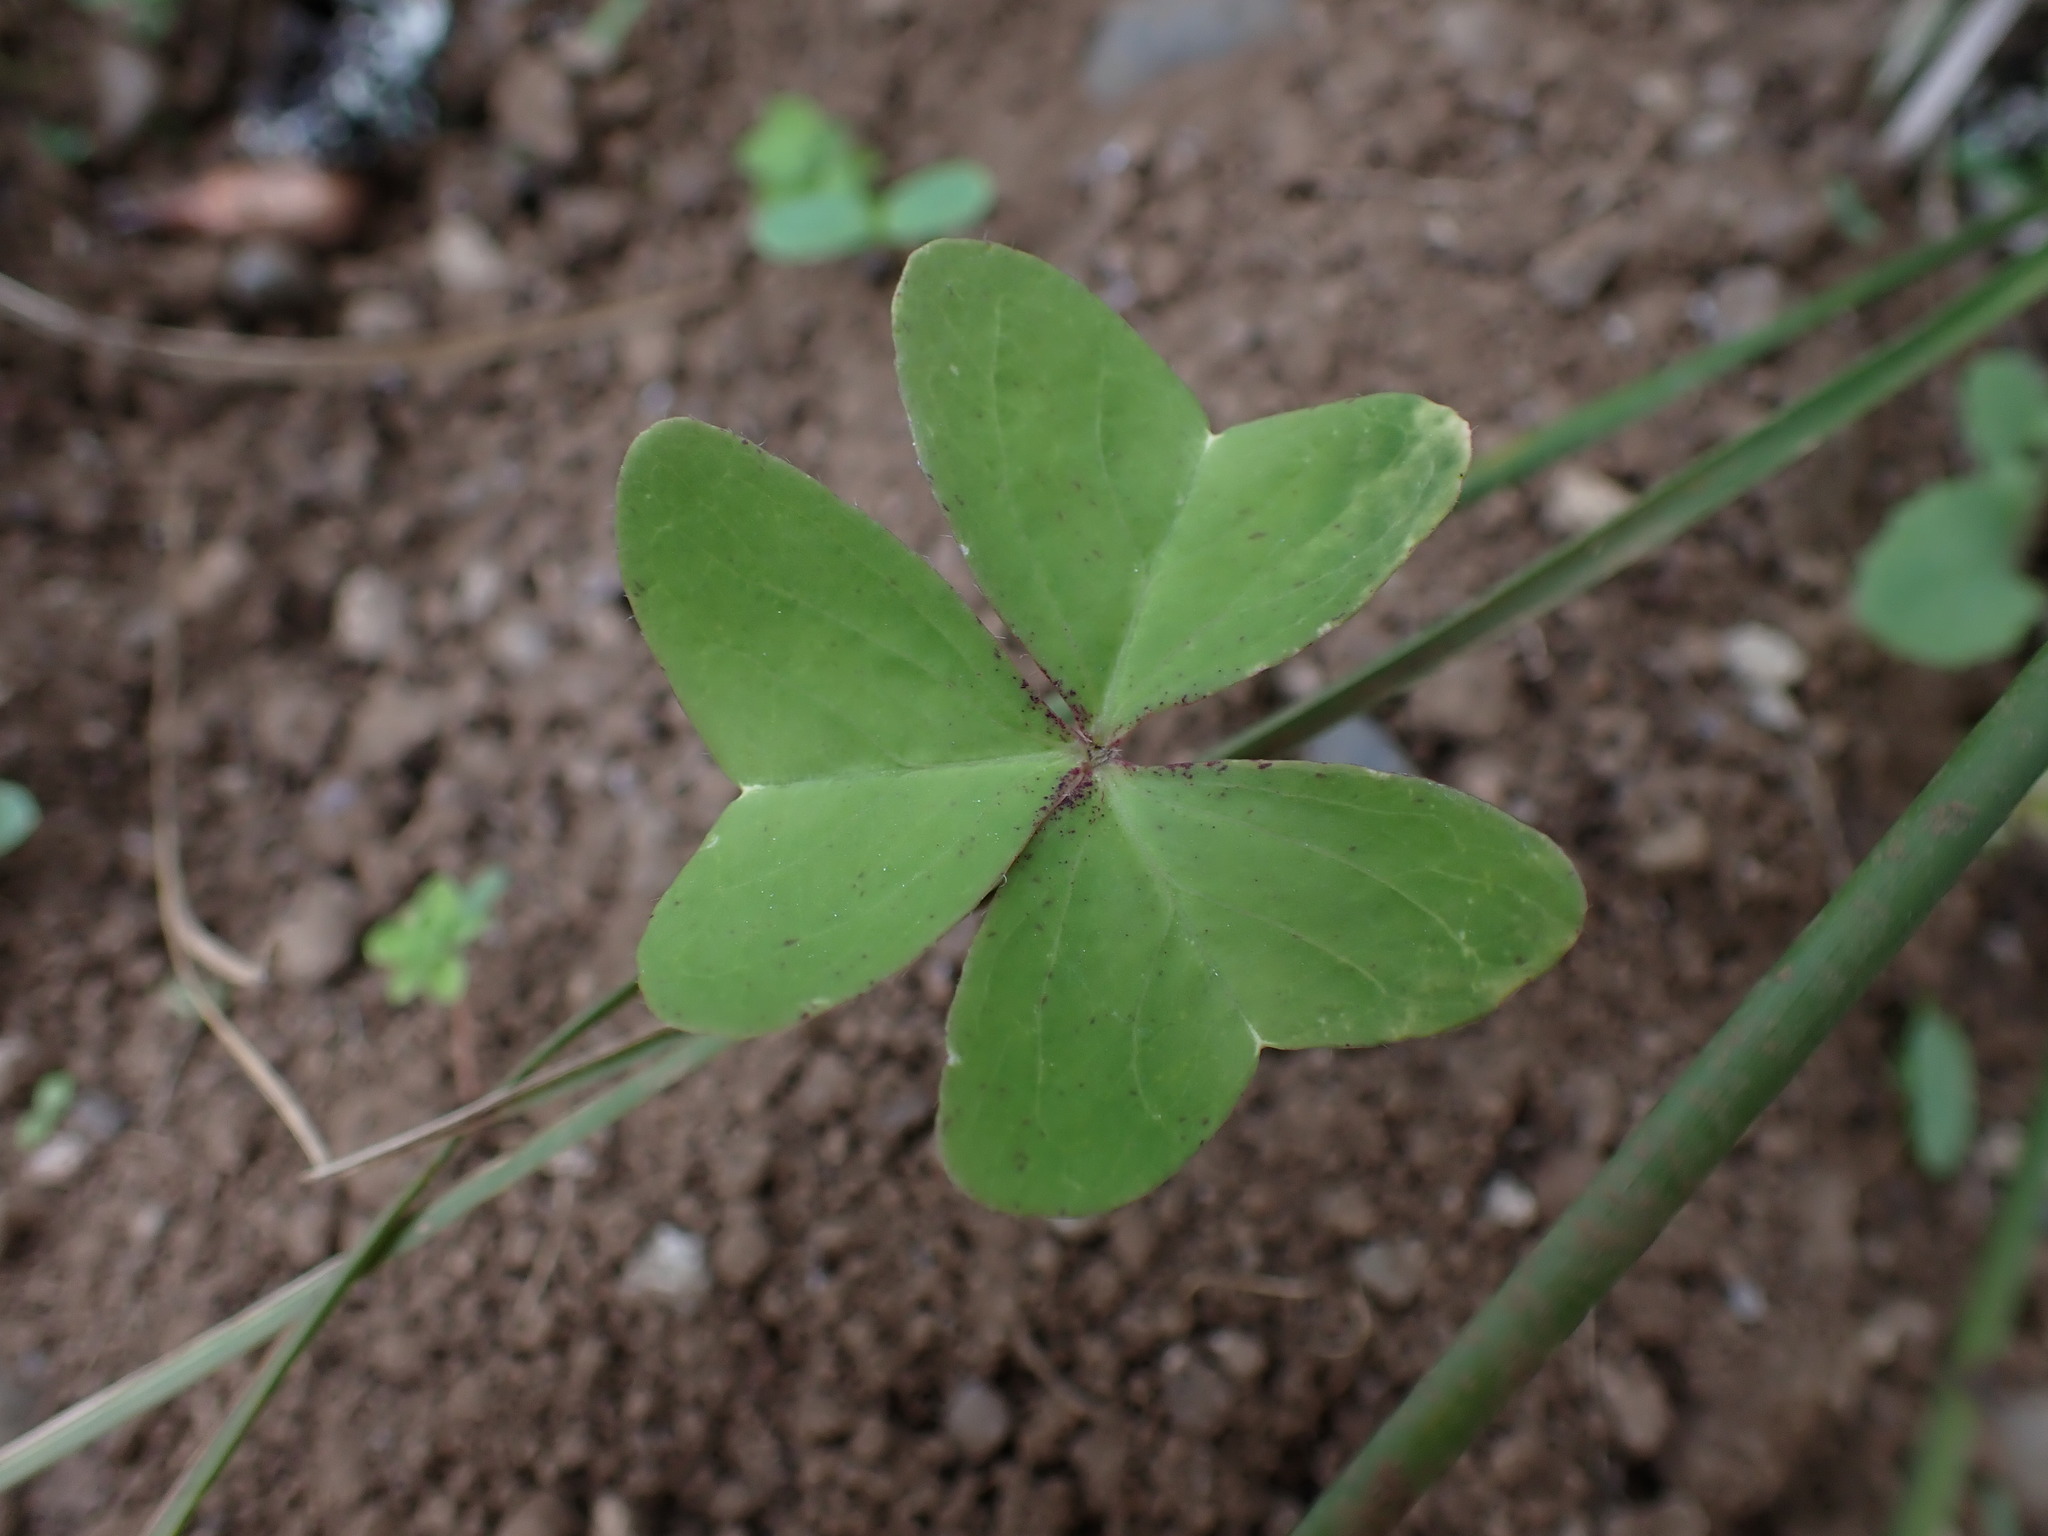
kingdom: Plantae
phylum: Tracheophyta
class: Magnoliopsida
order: Oxalidales
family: Oxalidaceae
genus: Oxalis
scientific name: Oxalis latifolia
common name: Garden pink-sorrel
